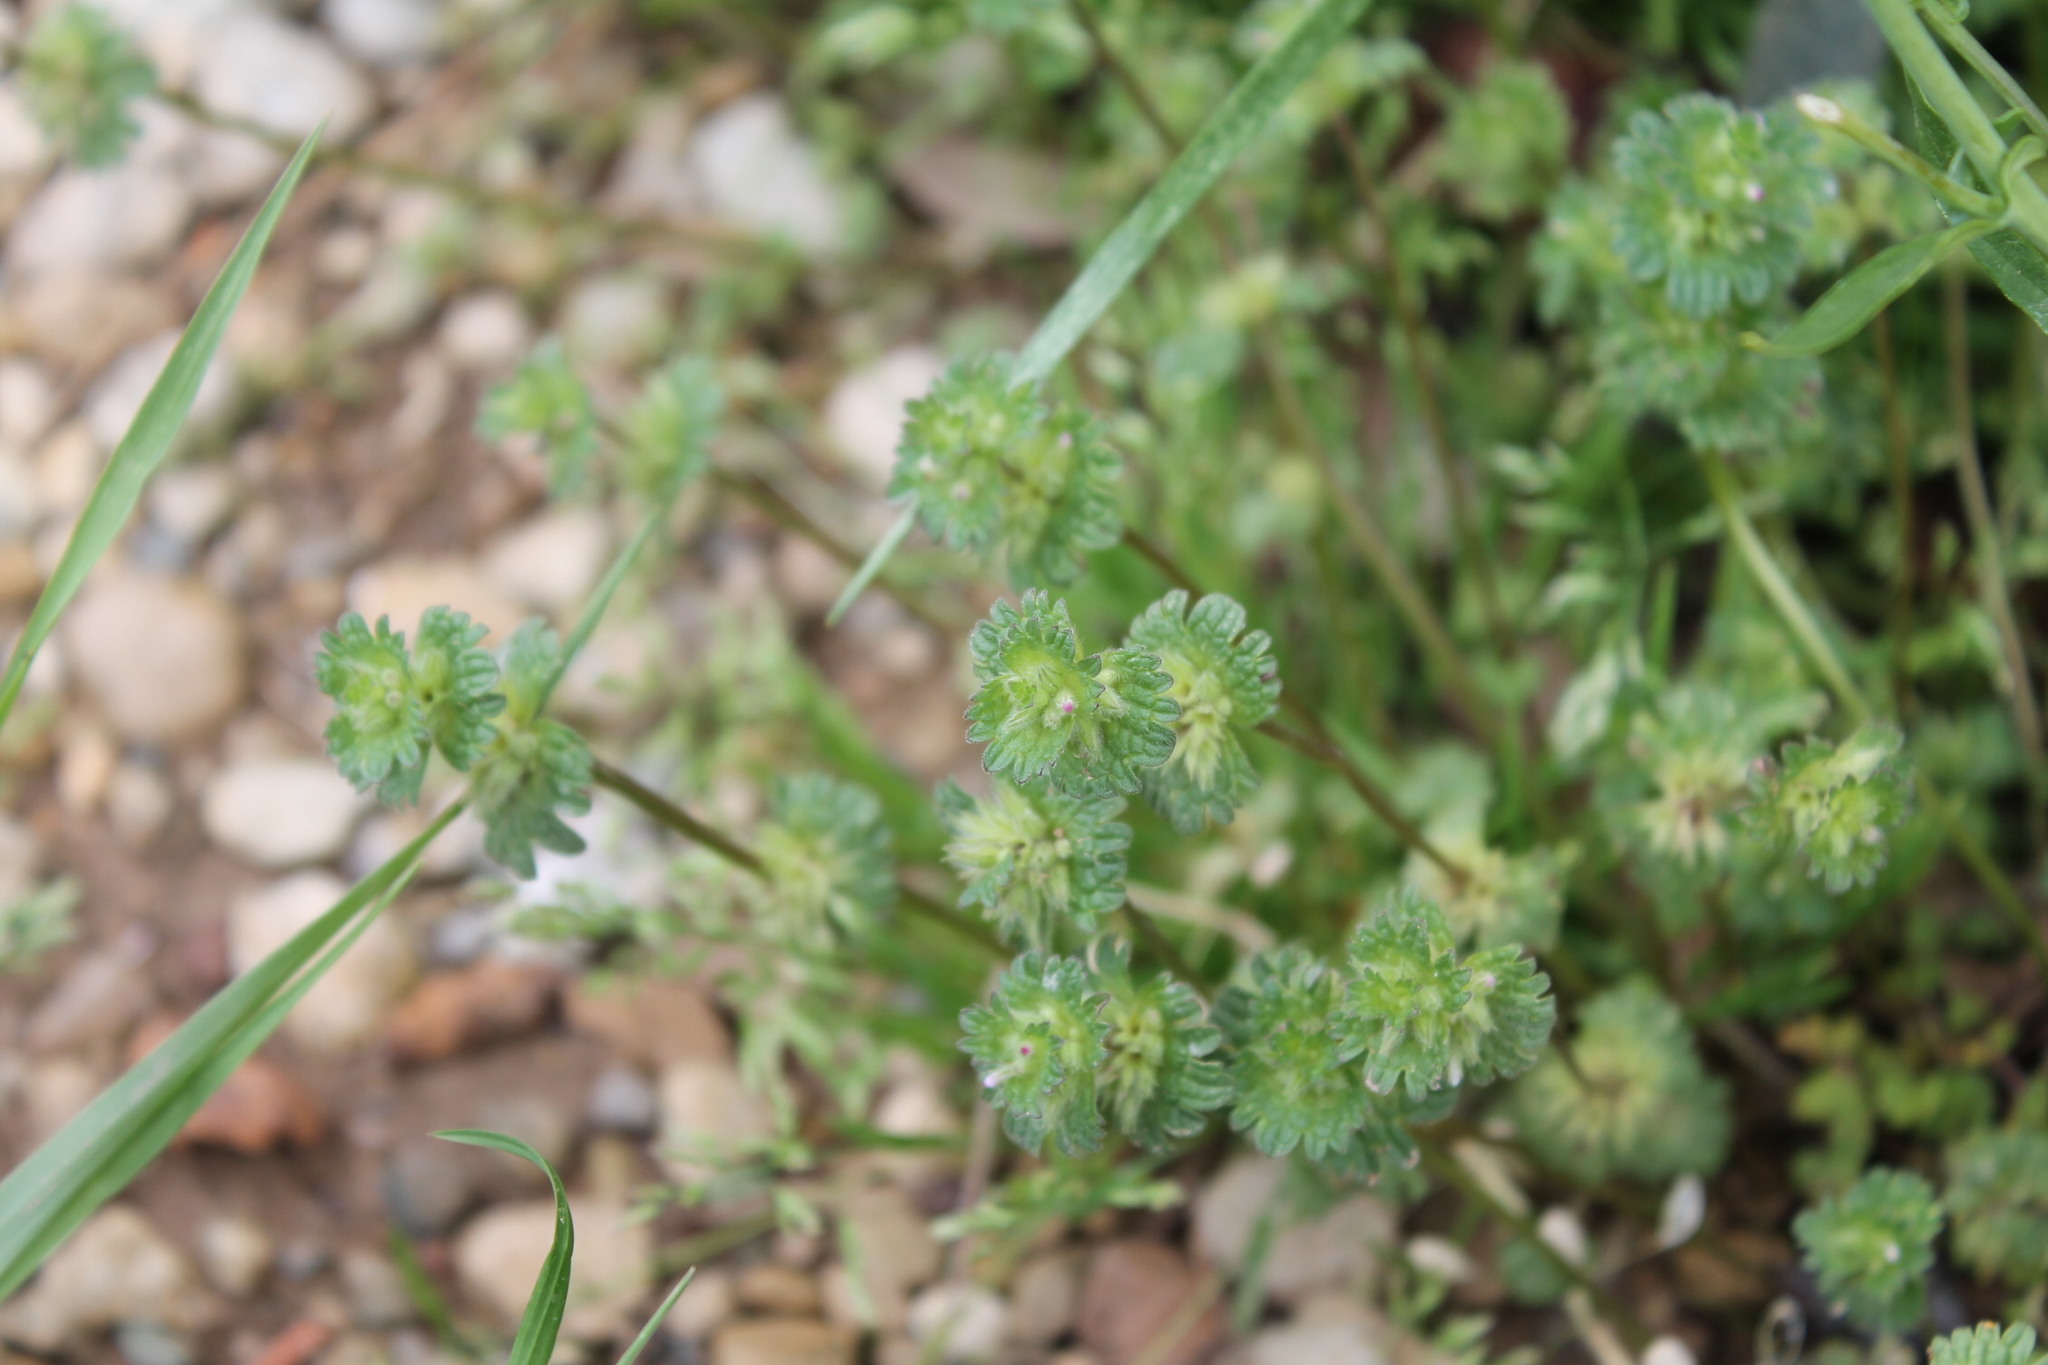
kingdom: Plantae
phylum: Tracheophyta
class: Magnoliopsida
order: Lamiales
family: Lamiaceae
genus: Lamium
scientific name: Lamium amplexicaule
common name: Henbit dead-nettle
